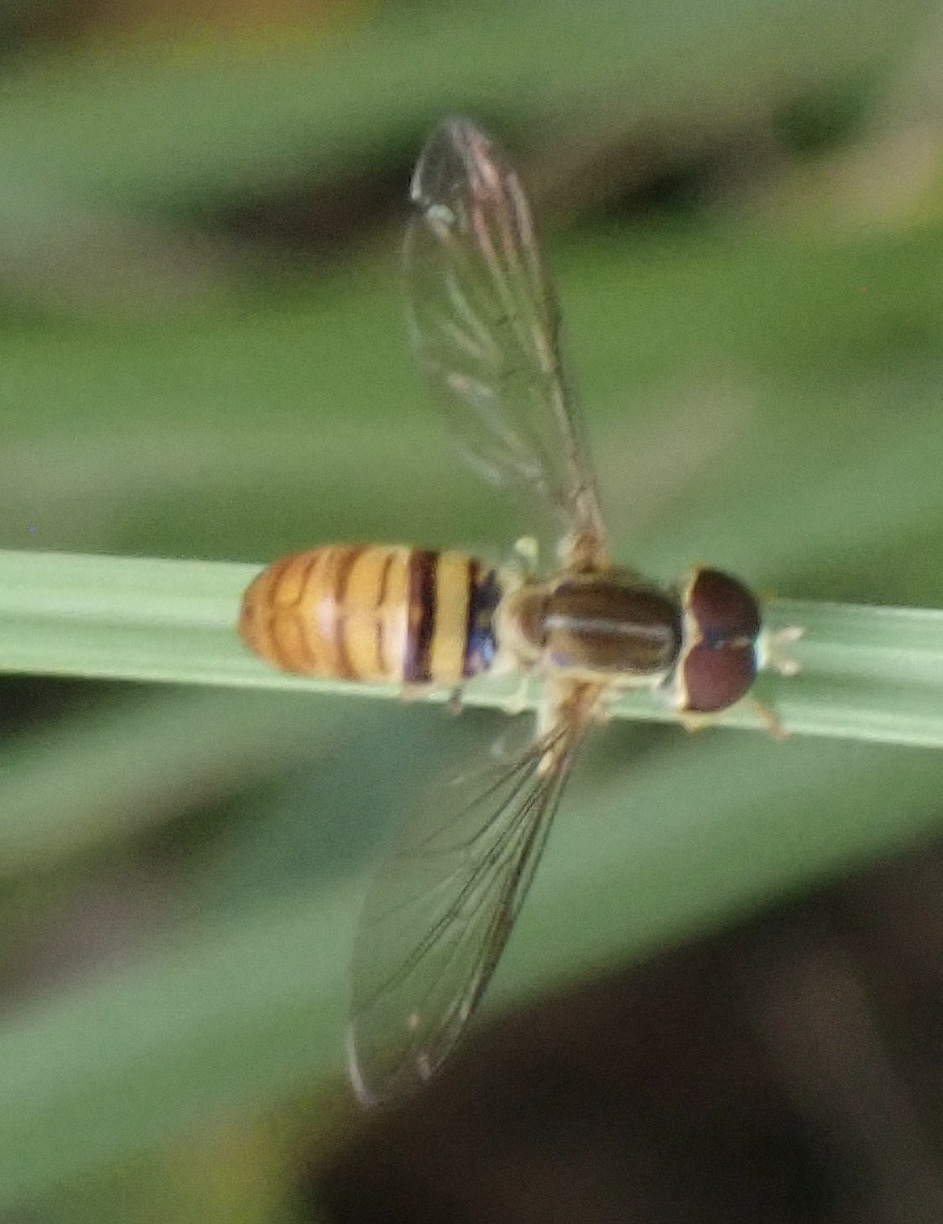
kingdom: Animalia
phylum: Arthropoda
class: Insecta
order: Diptera
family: Syrphidae
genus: Toxomerus
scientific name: Toxomerus politus
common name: Maize calligrapher
